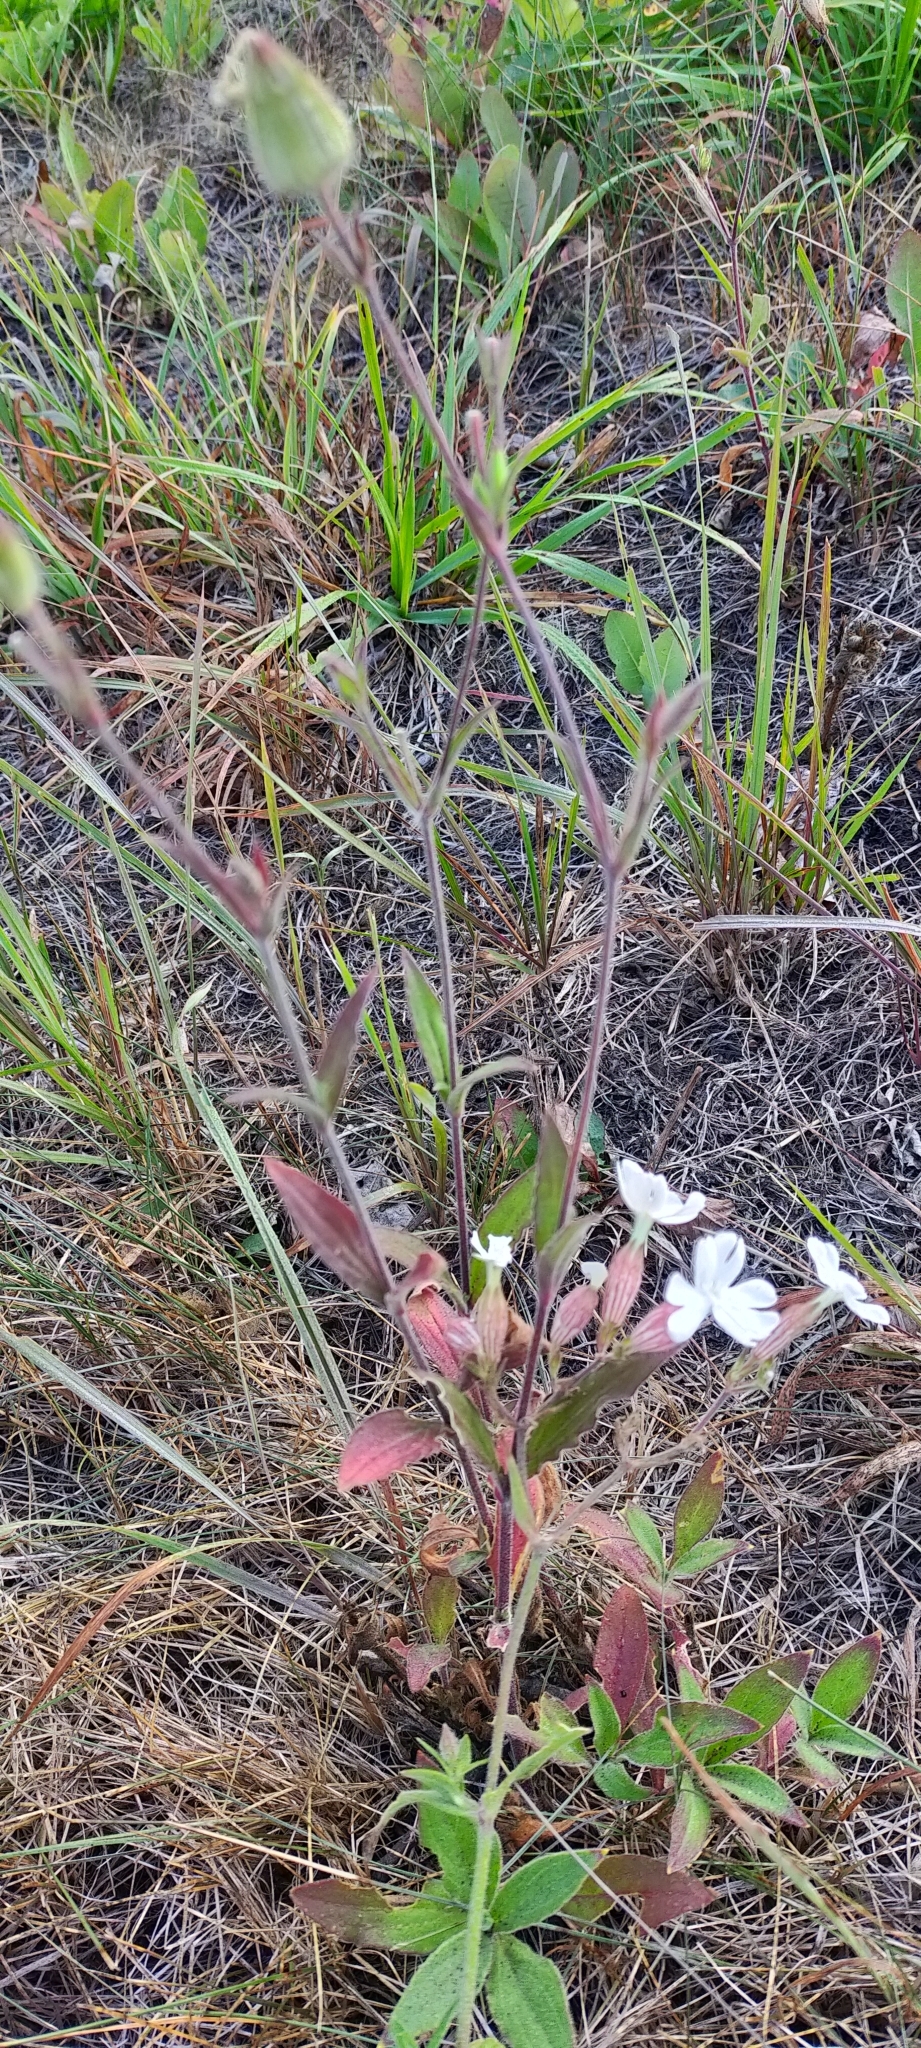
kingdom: Plantae
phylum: Tracheophyta
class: Magnoliopsida
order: Caryophyllales
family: Caryophyllaceae
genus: Silene
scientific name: Silene latifolia
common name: White campion
